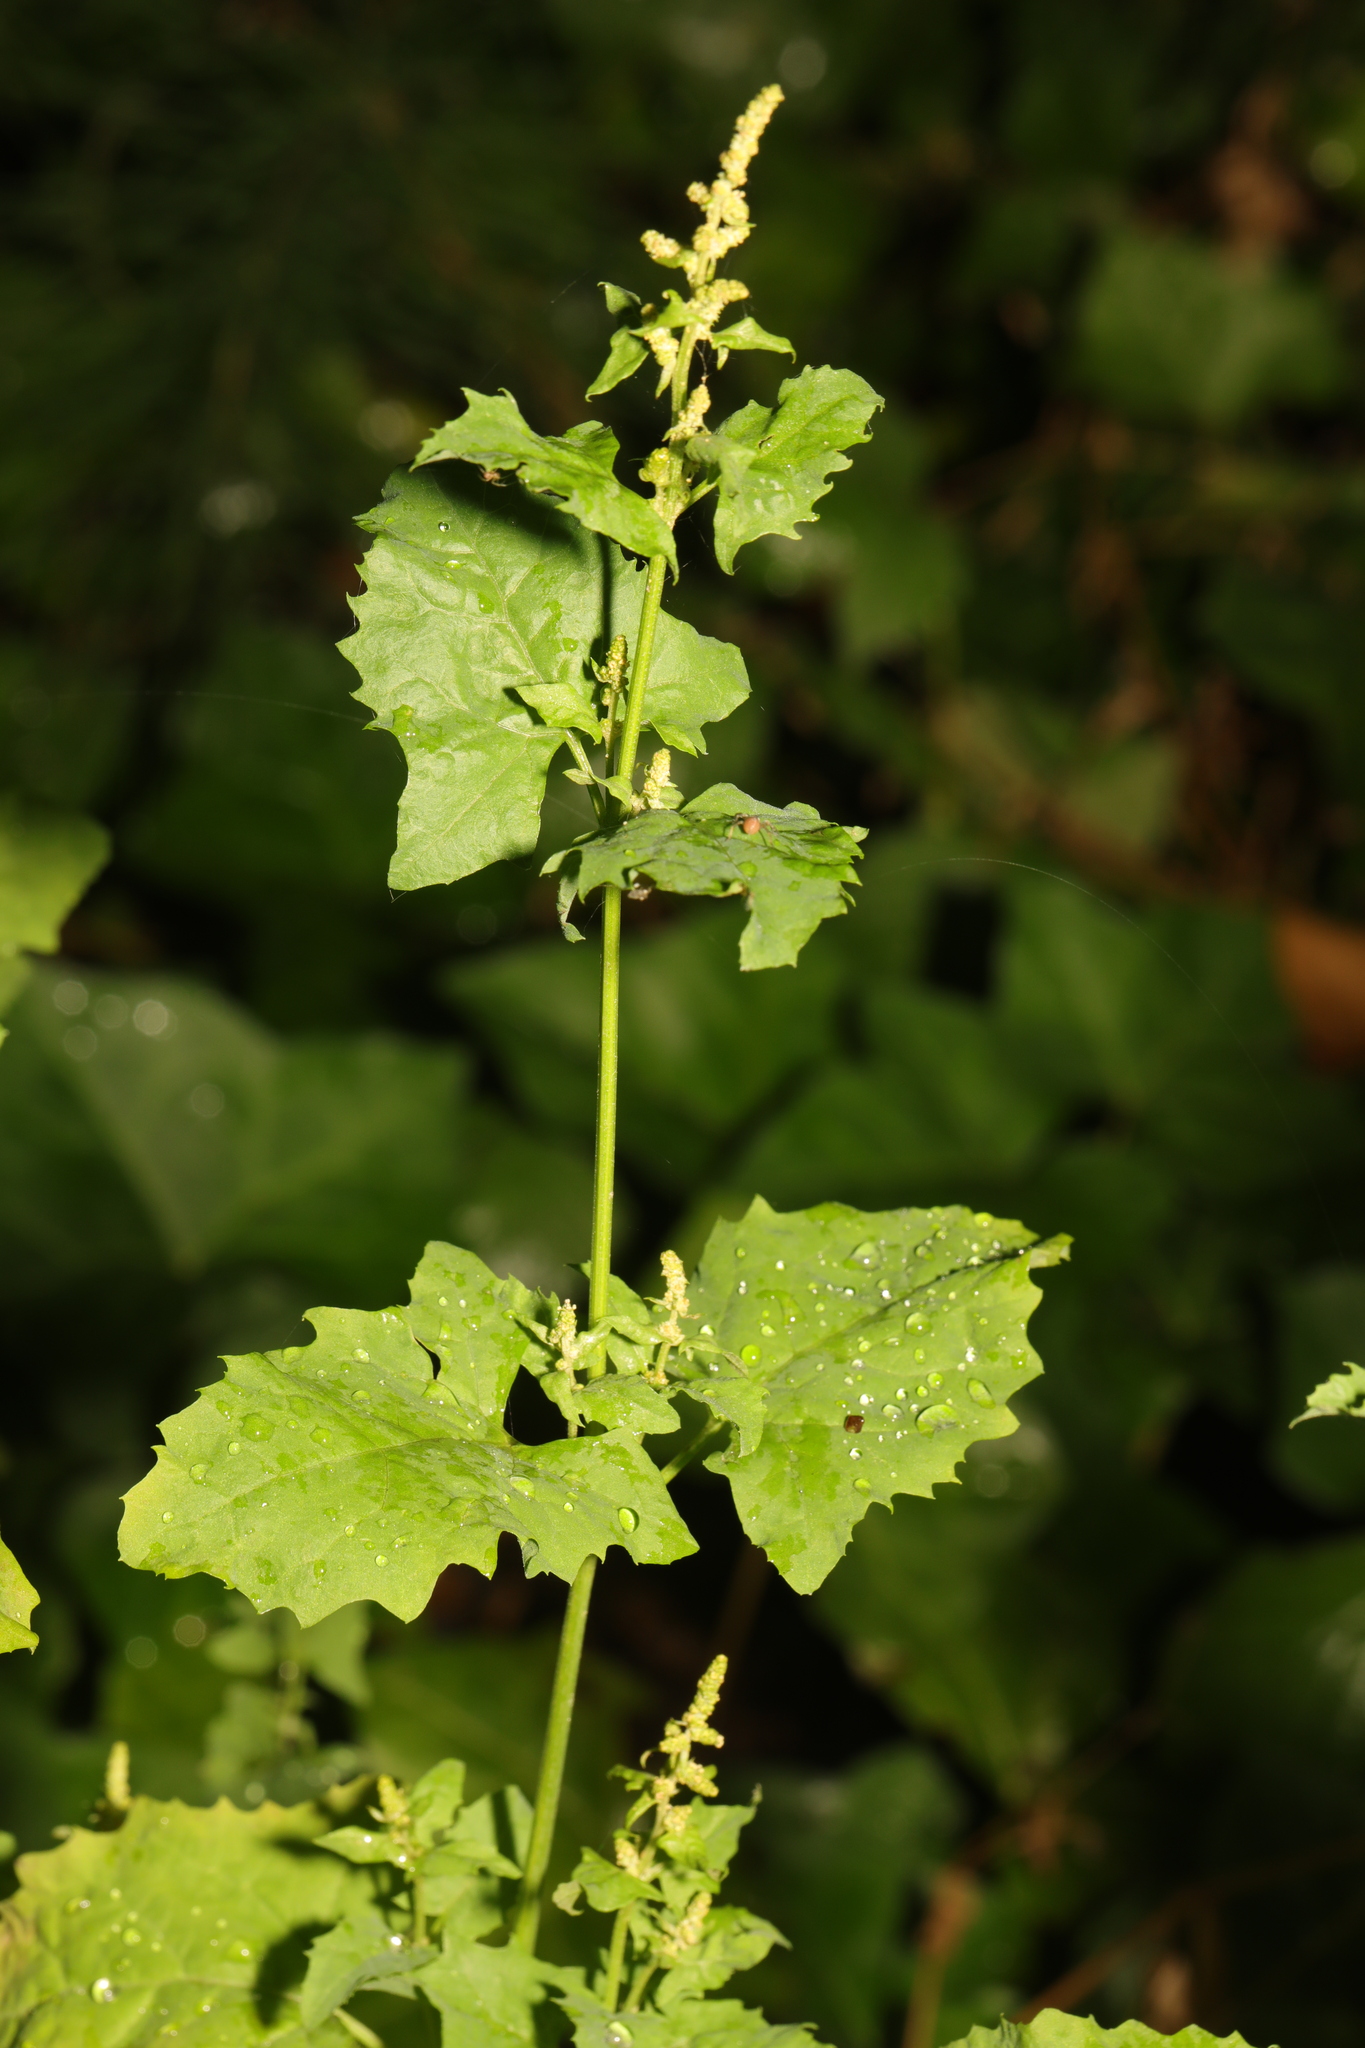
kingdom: Plantae
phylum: Tracheophyta
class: Magnoliopsida
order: Caryophyllales
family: Amaranthaceae
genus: Atriplex
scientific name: Atriplex prostrata
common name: Spear-leaved orache
